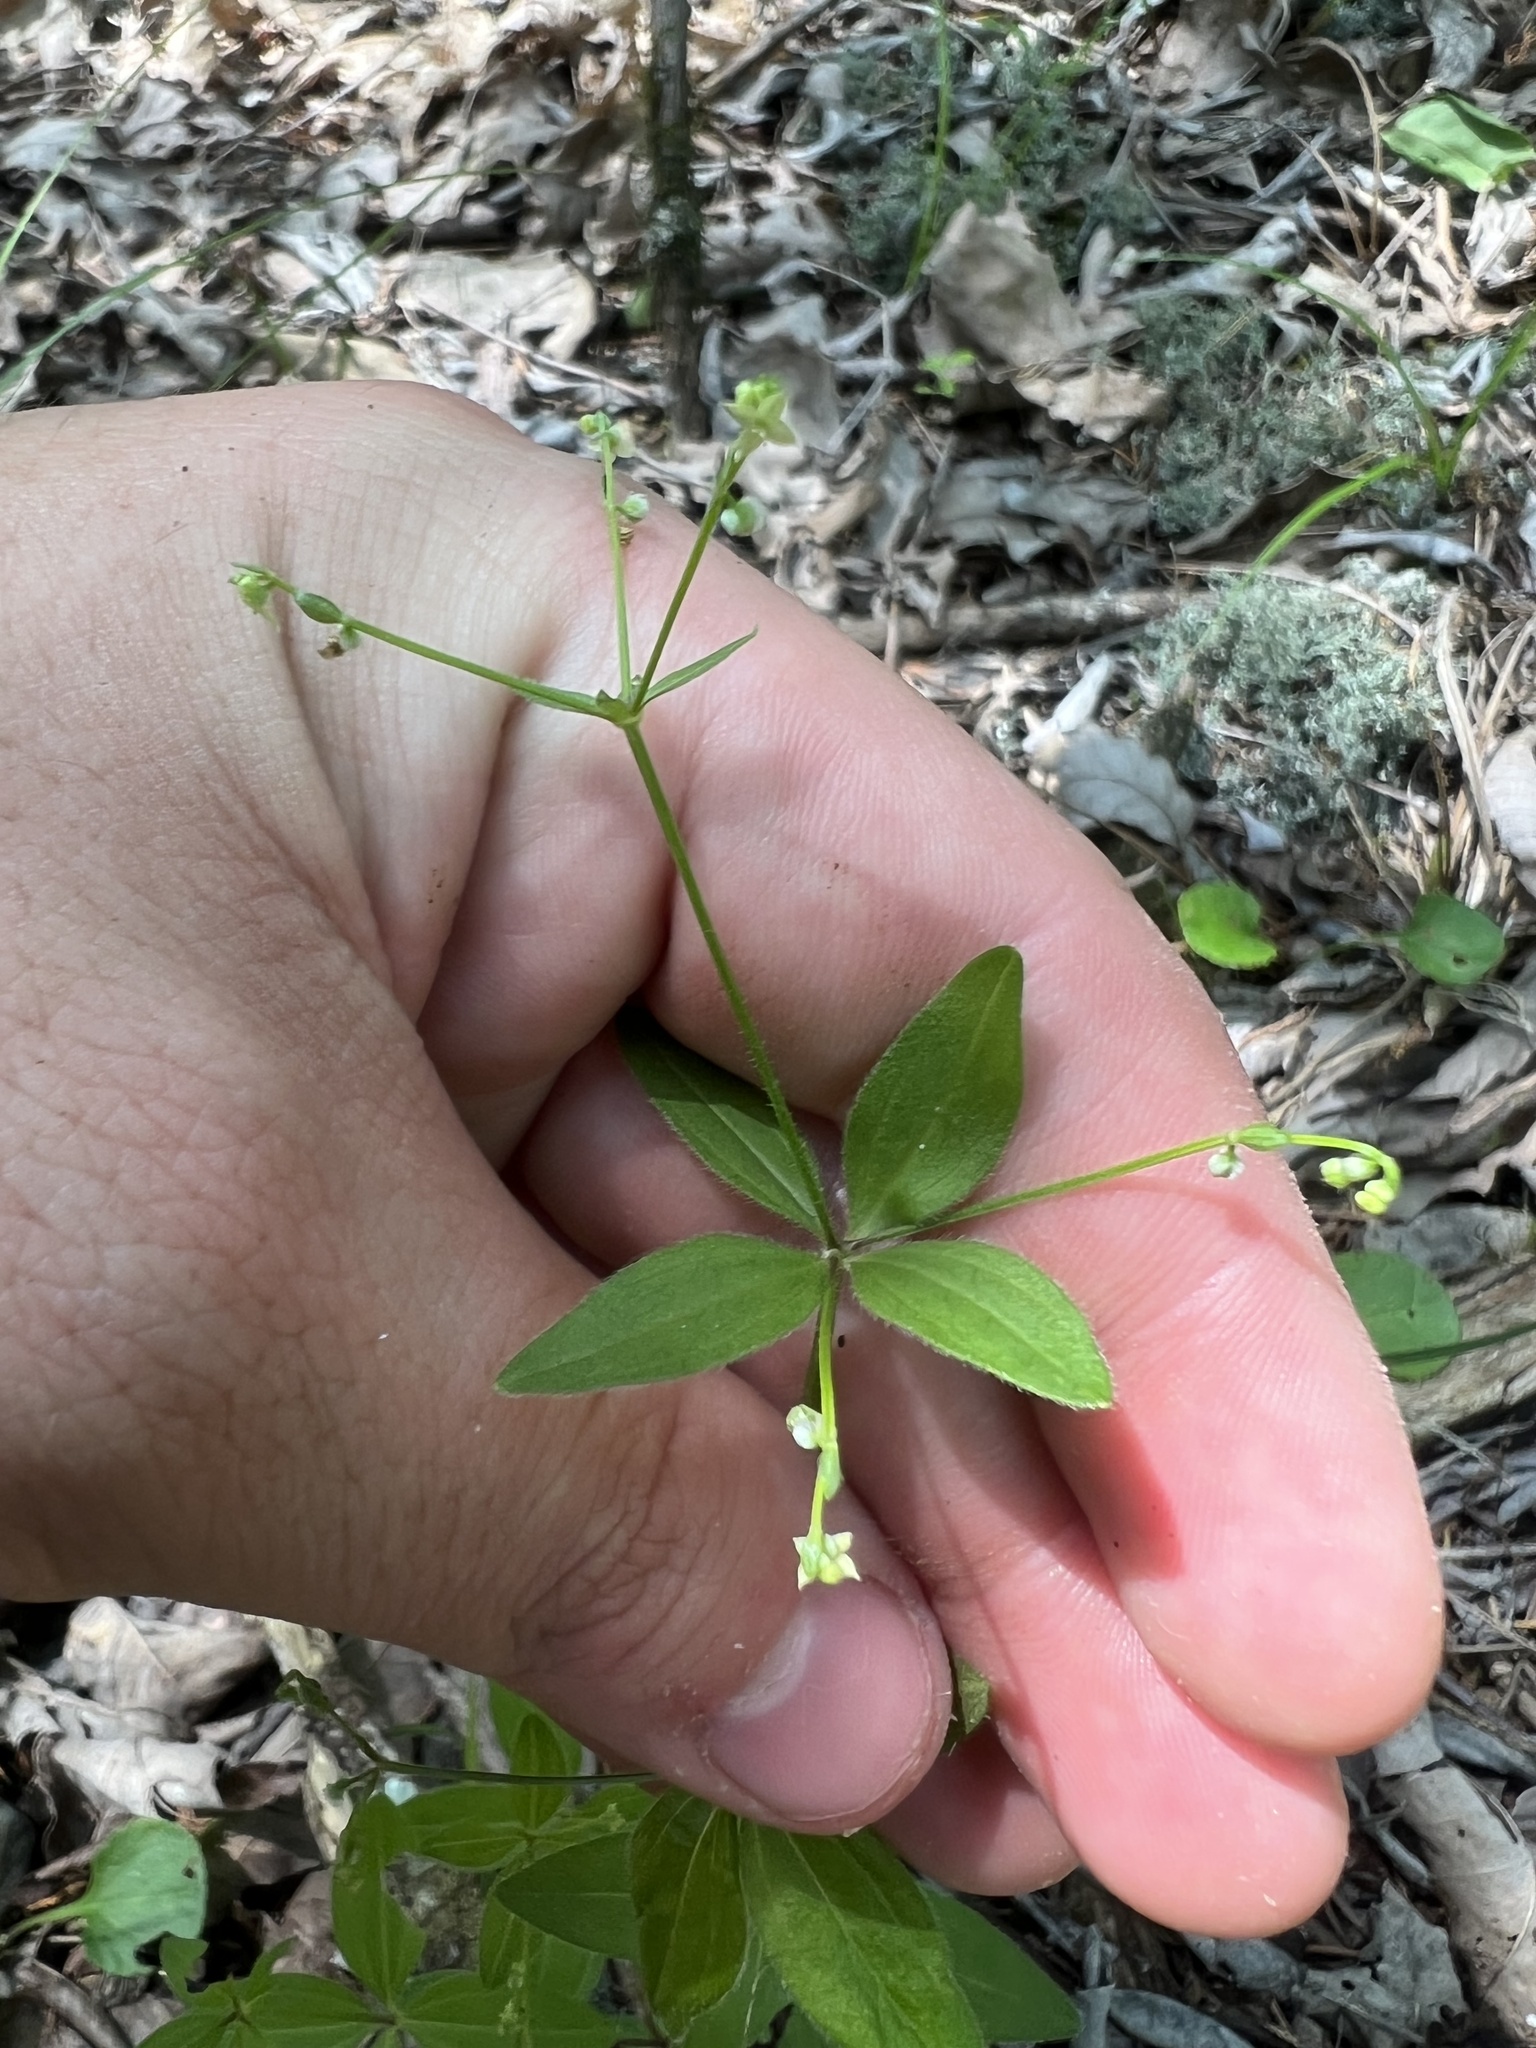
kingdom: Plantae
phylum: Tracheophyta
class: Magnoliopsida
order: Gentianales
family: Rubiaceae
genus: Galium
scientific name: Galium circaezans
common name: Forest bedstraw
